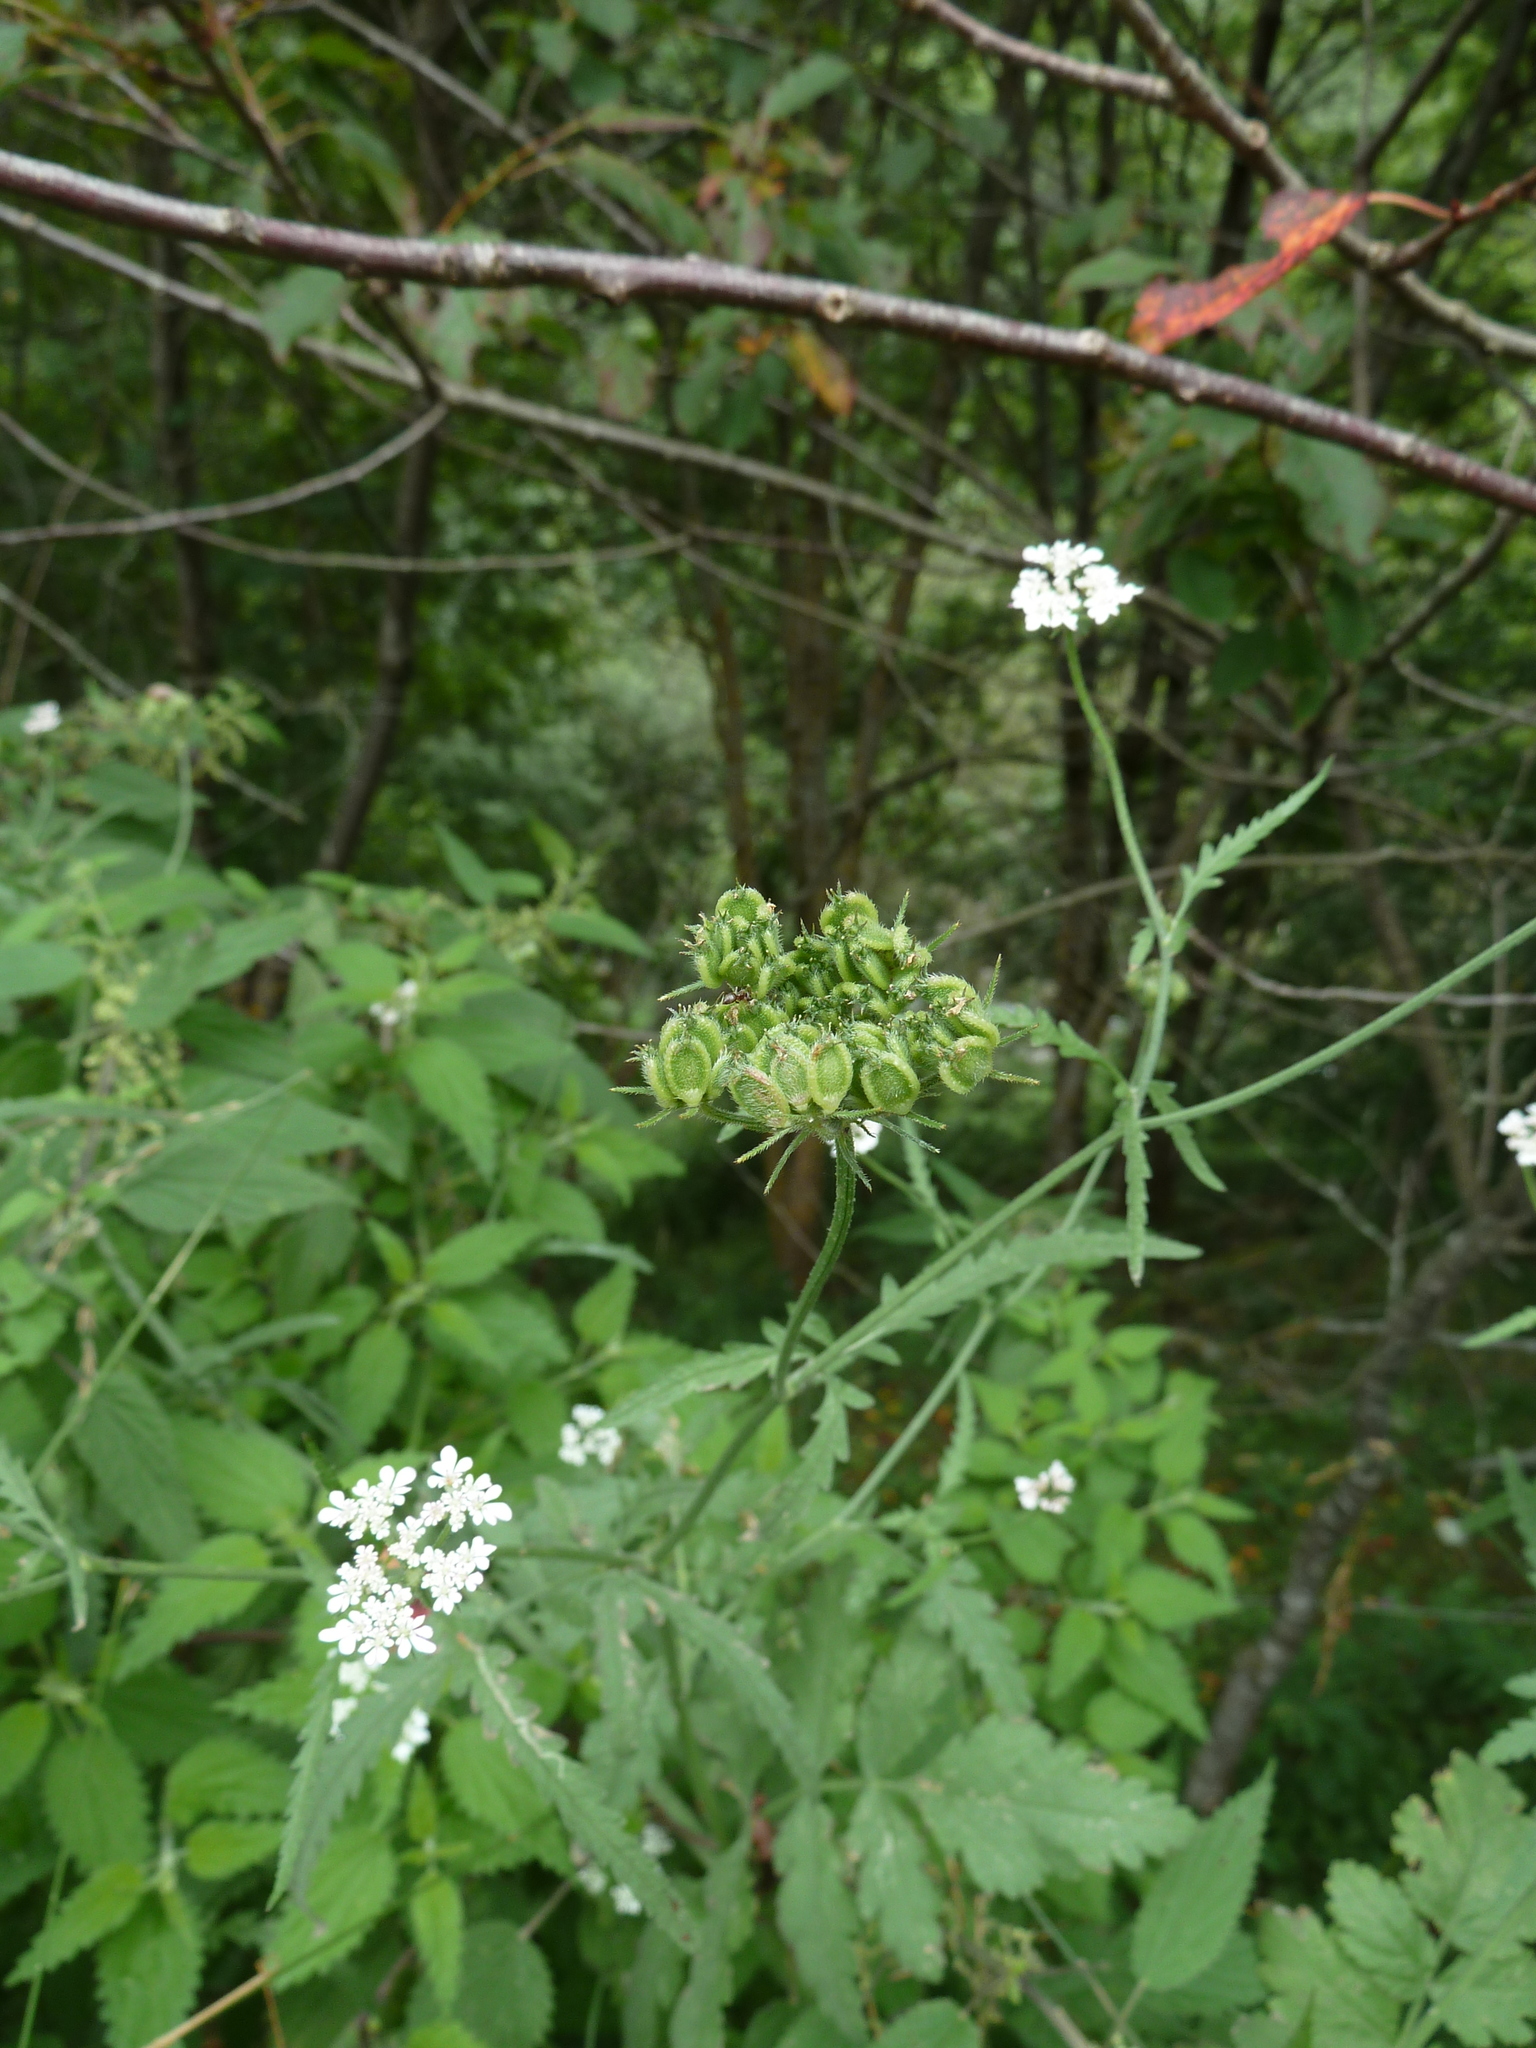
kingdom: Plantae
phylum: Tracheophyta
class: Magnoliopsida
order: Apiales
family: Apiaceae
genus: Tordylium
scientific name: Tordylium maximum
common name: Hartwort
